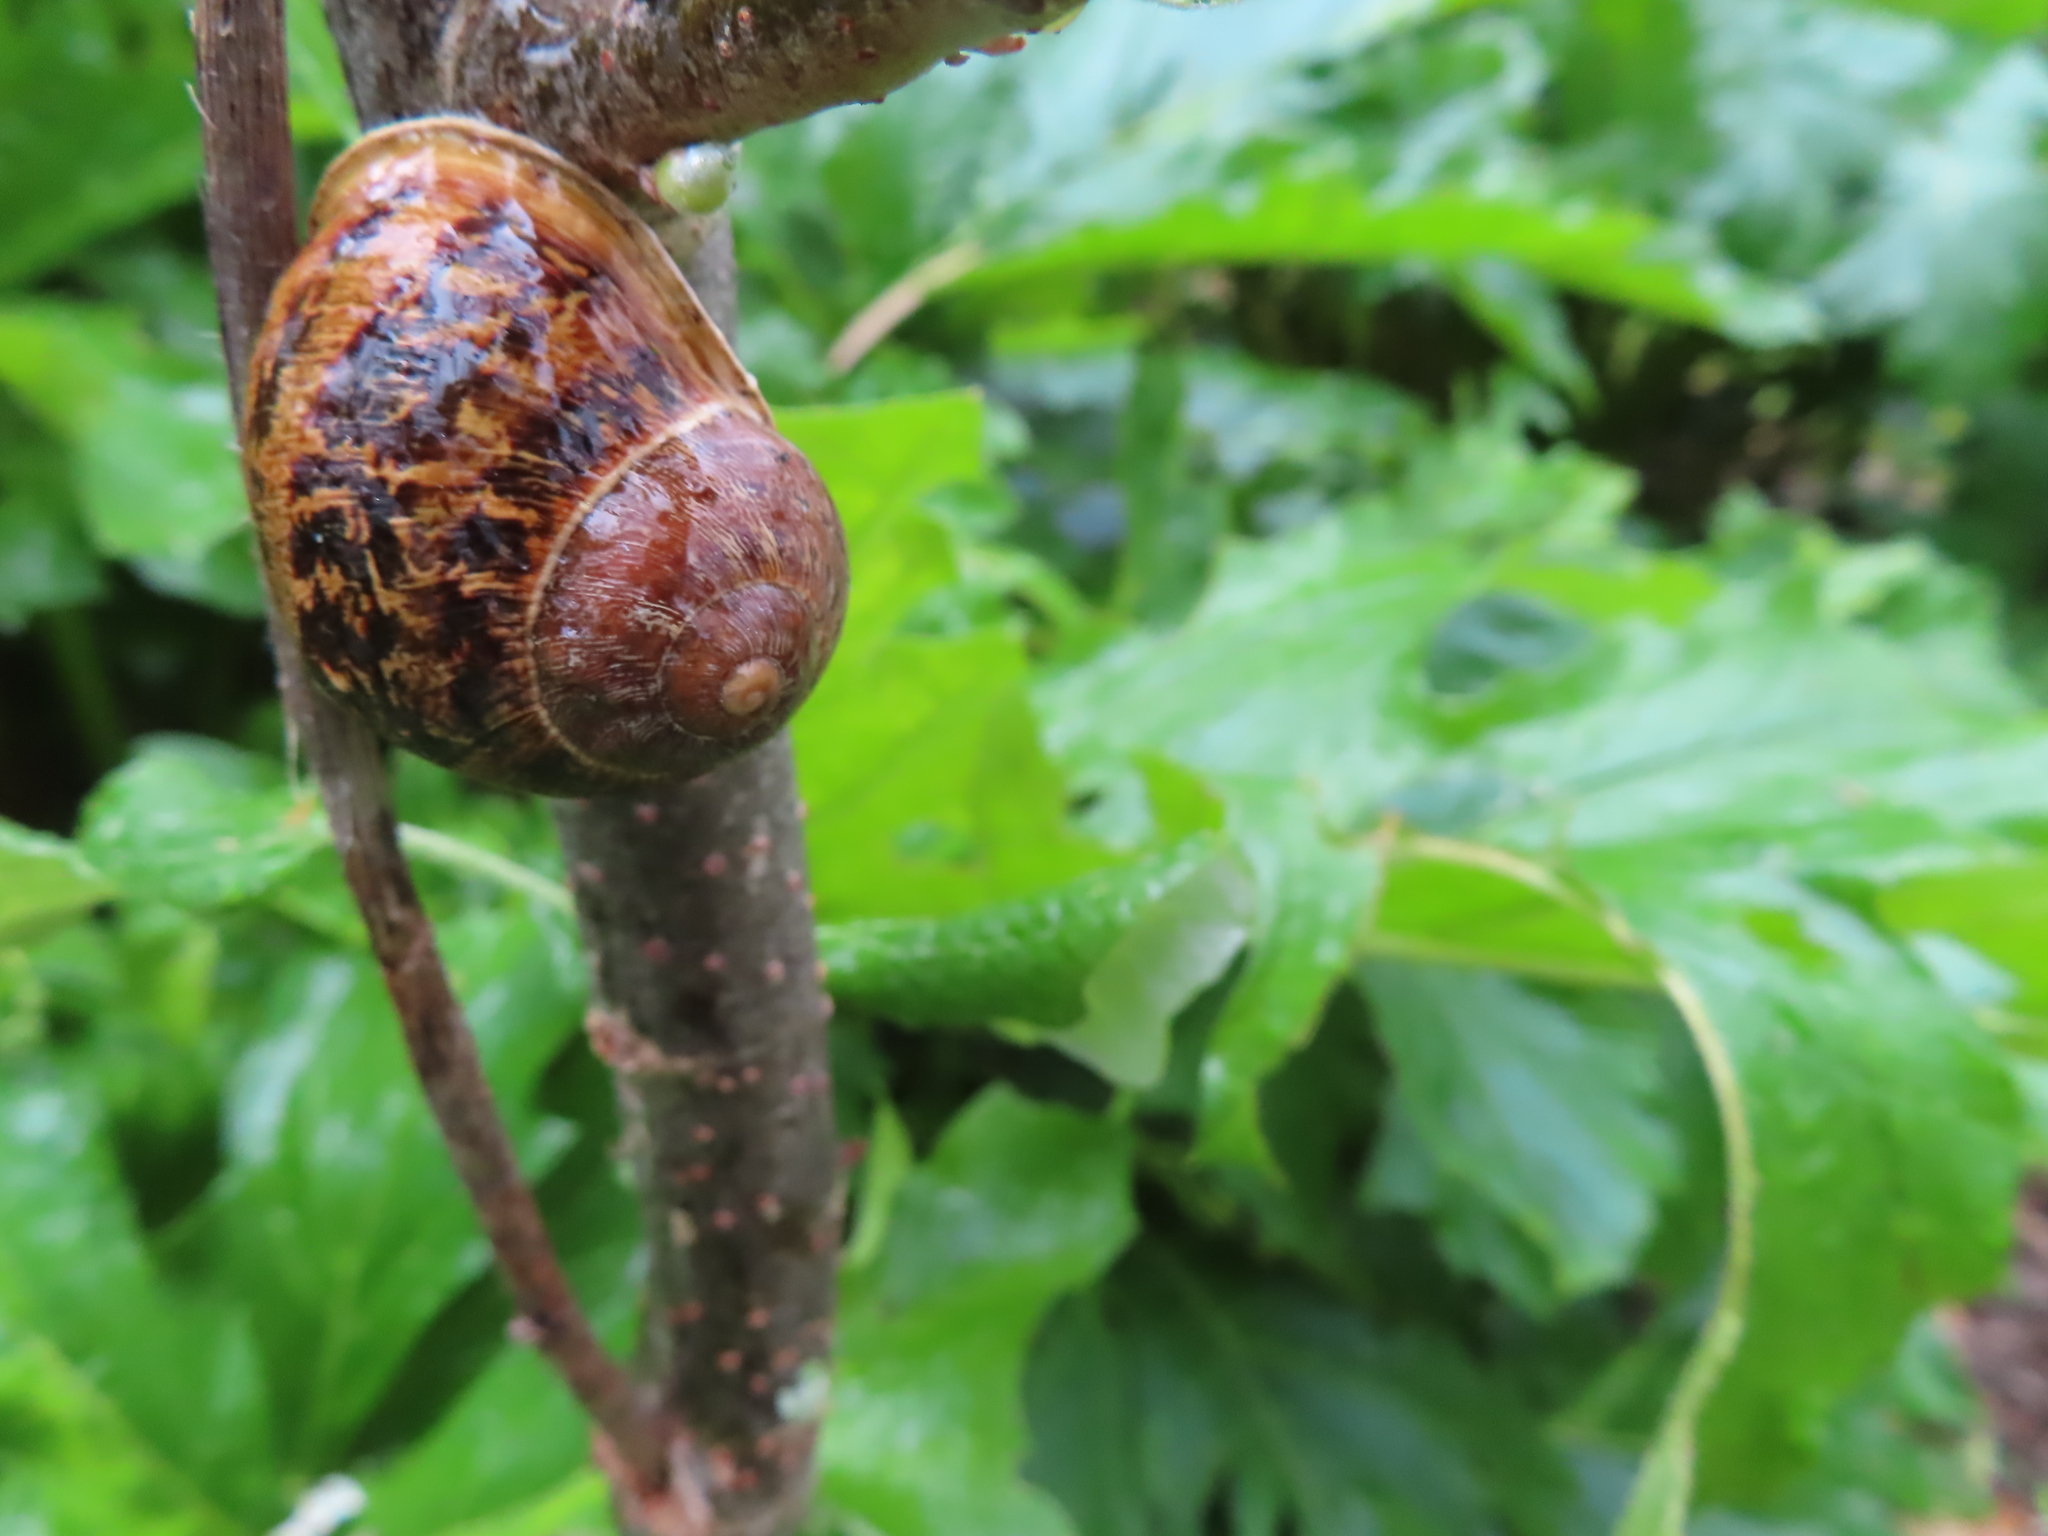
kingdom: Animalia
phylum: Mollusca
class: Gastropoda
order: Stylommatophora
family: Helicidae
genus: Cornu
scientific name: Cornu aspersum
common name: Brown garden snail
